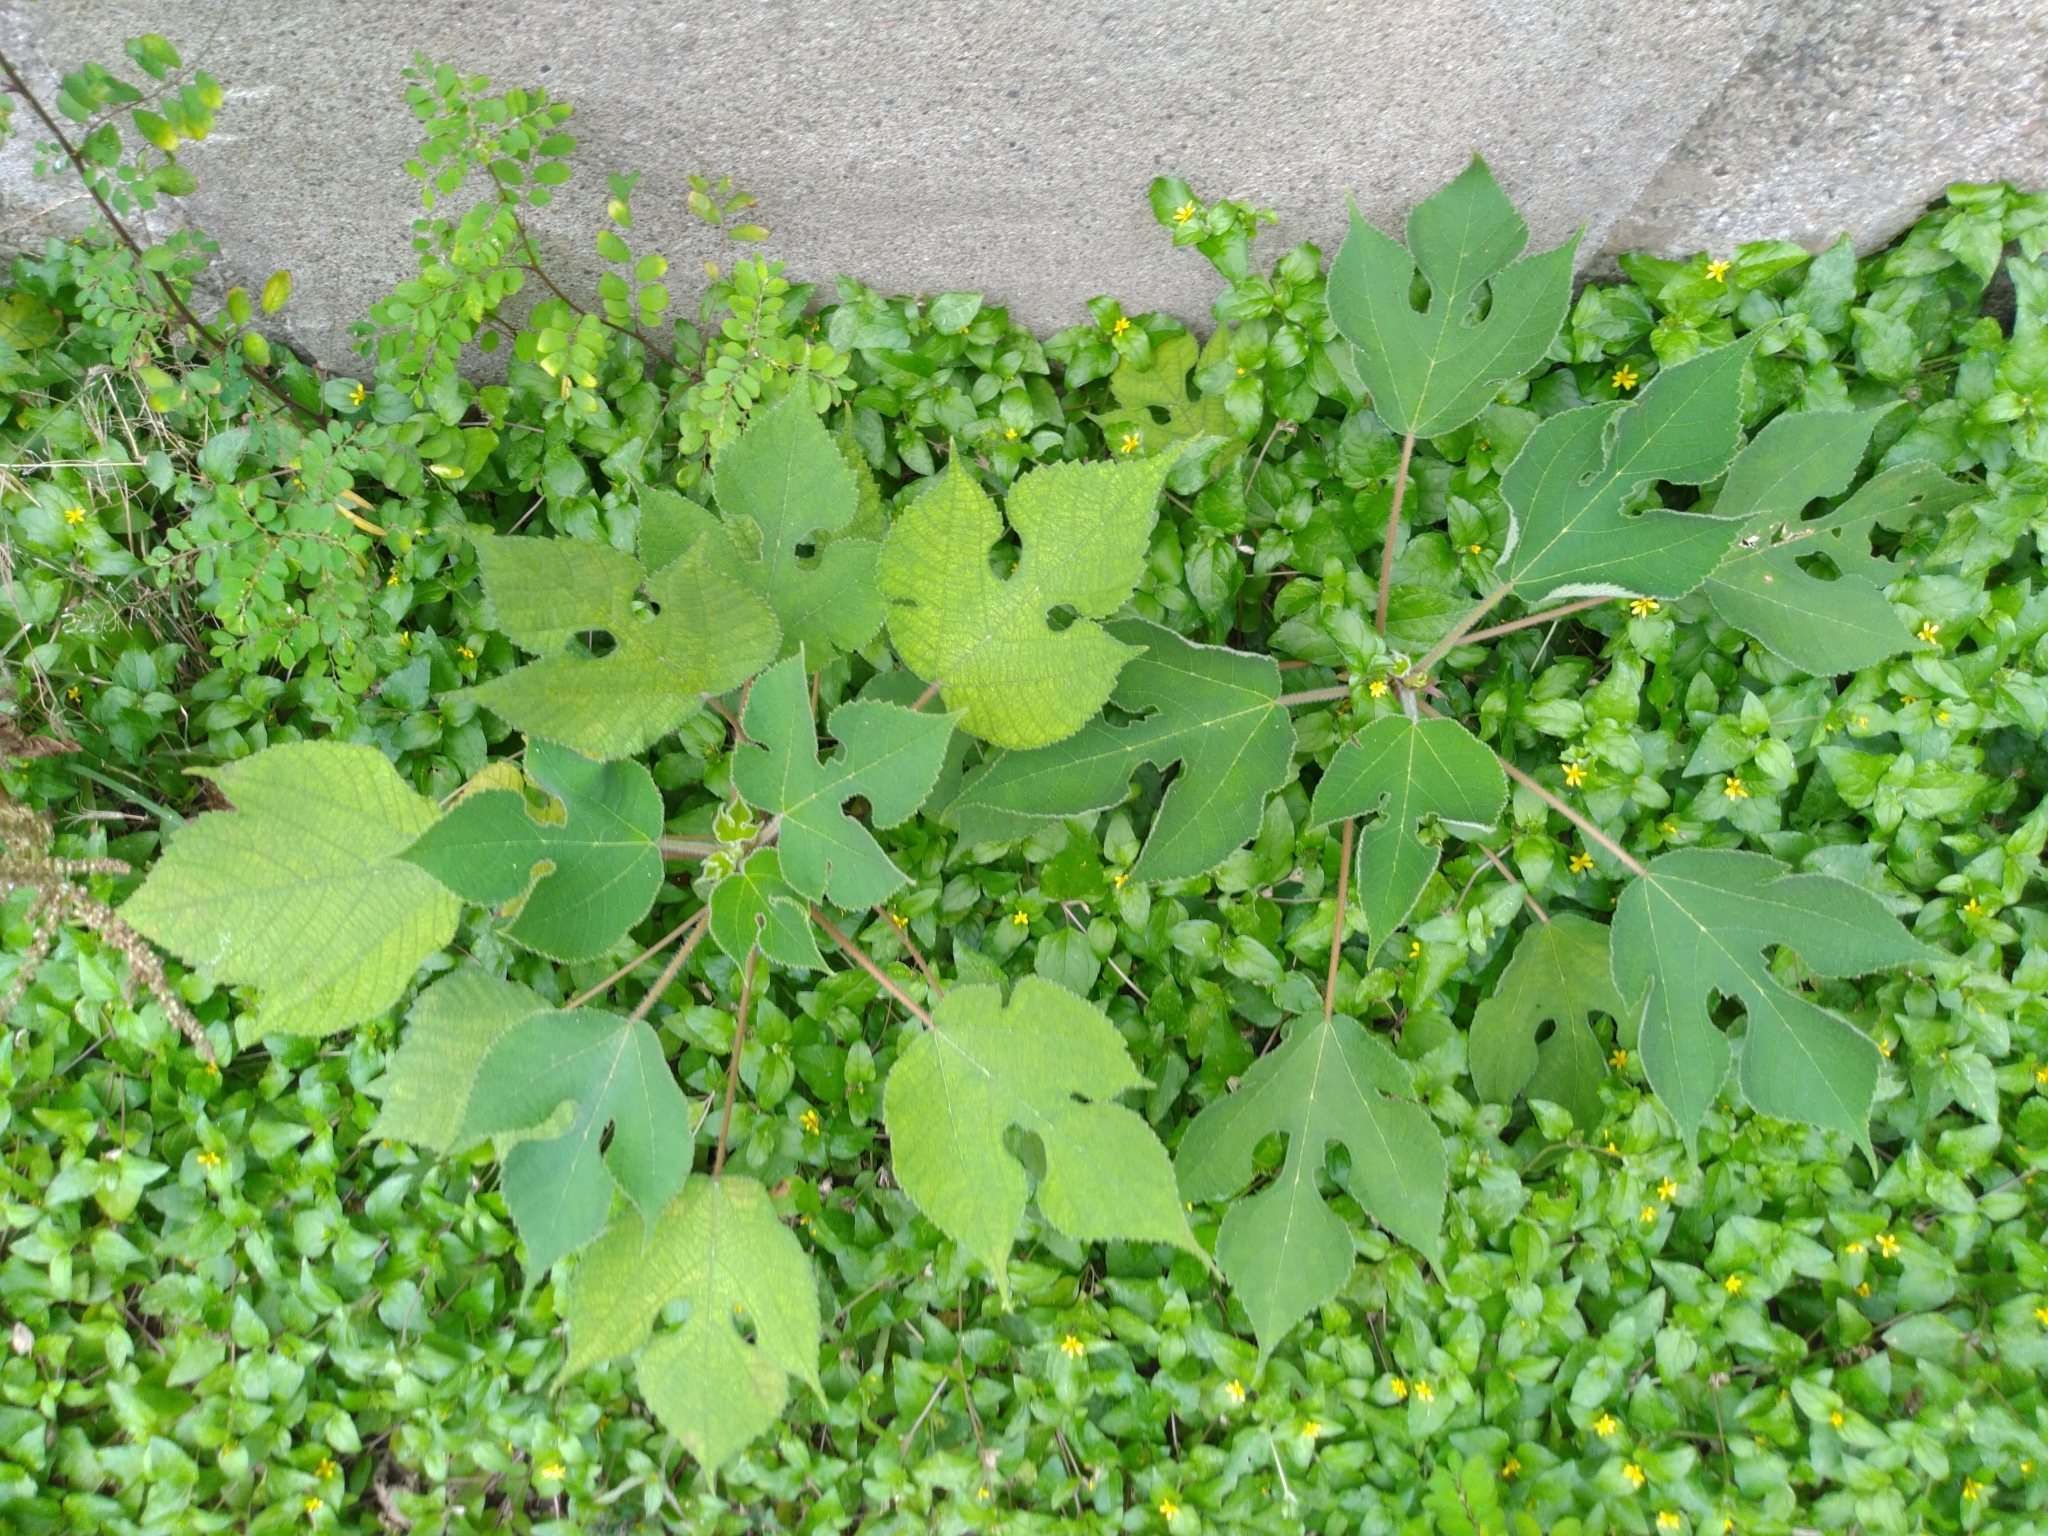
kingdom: Plantae
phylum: Tracheophyta
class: Magnoliopsida
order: Rosales
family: Moraceae
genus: Broussonetia
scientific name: Broussonetia papyrifera
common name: Paper mulberry
